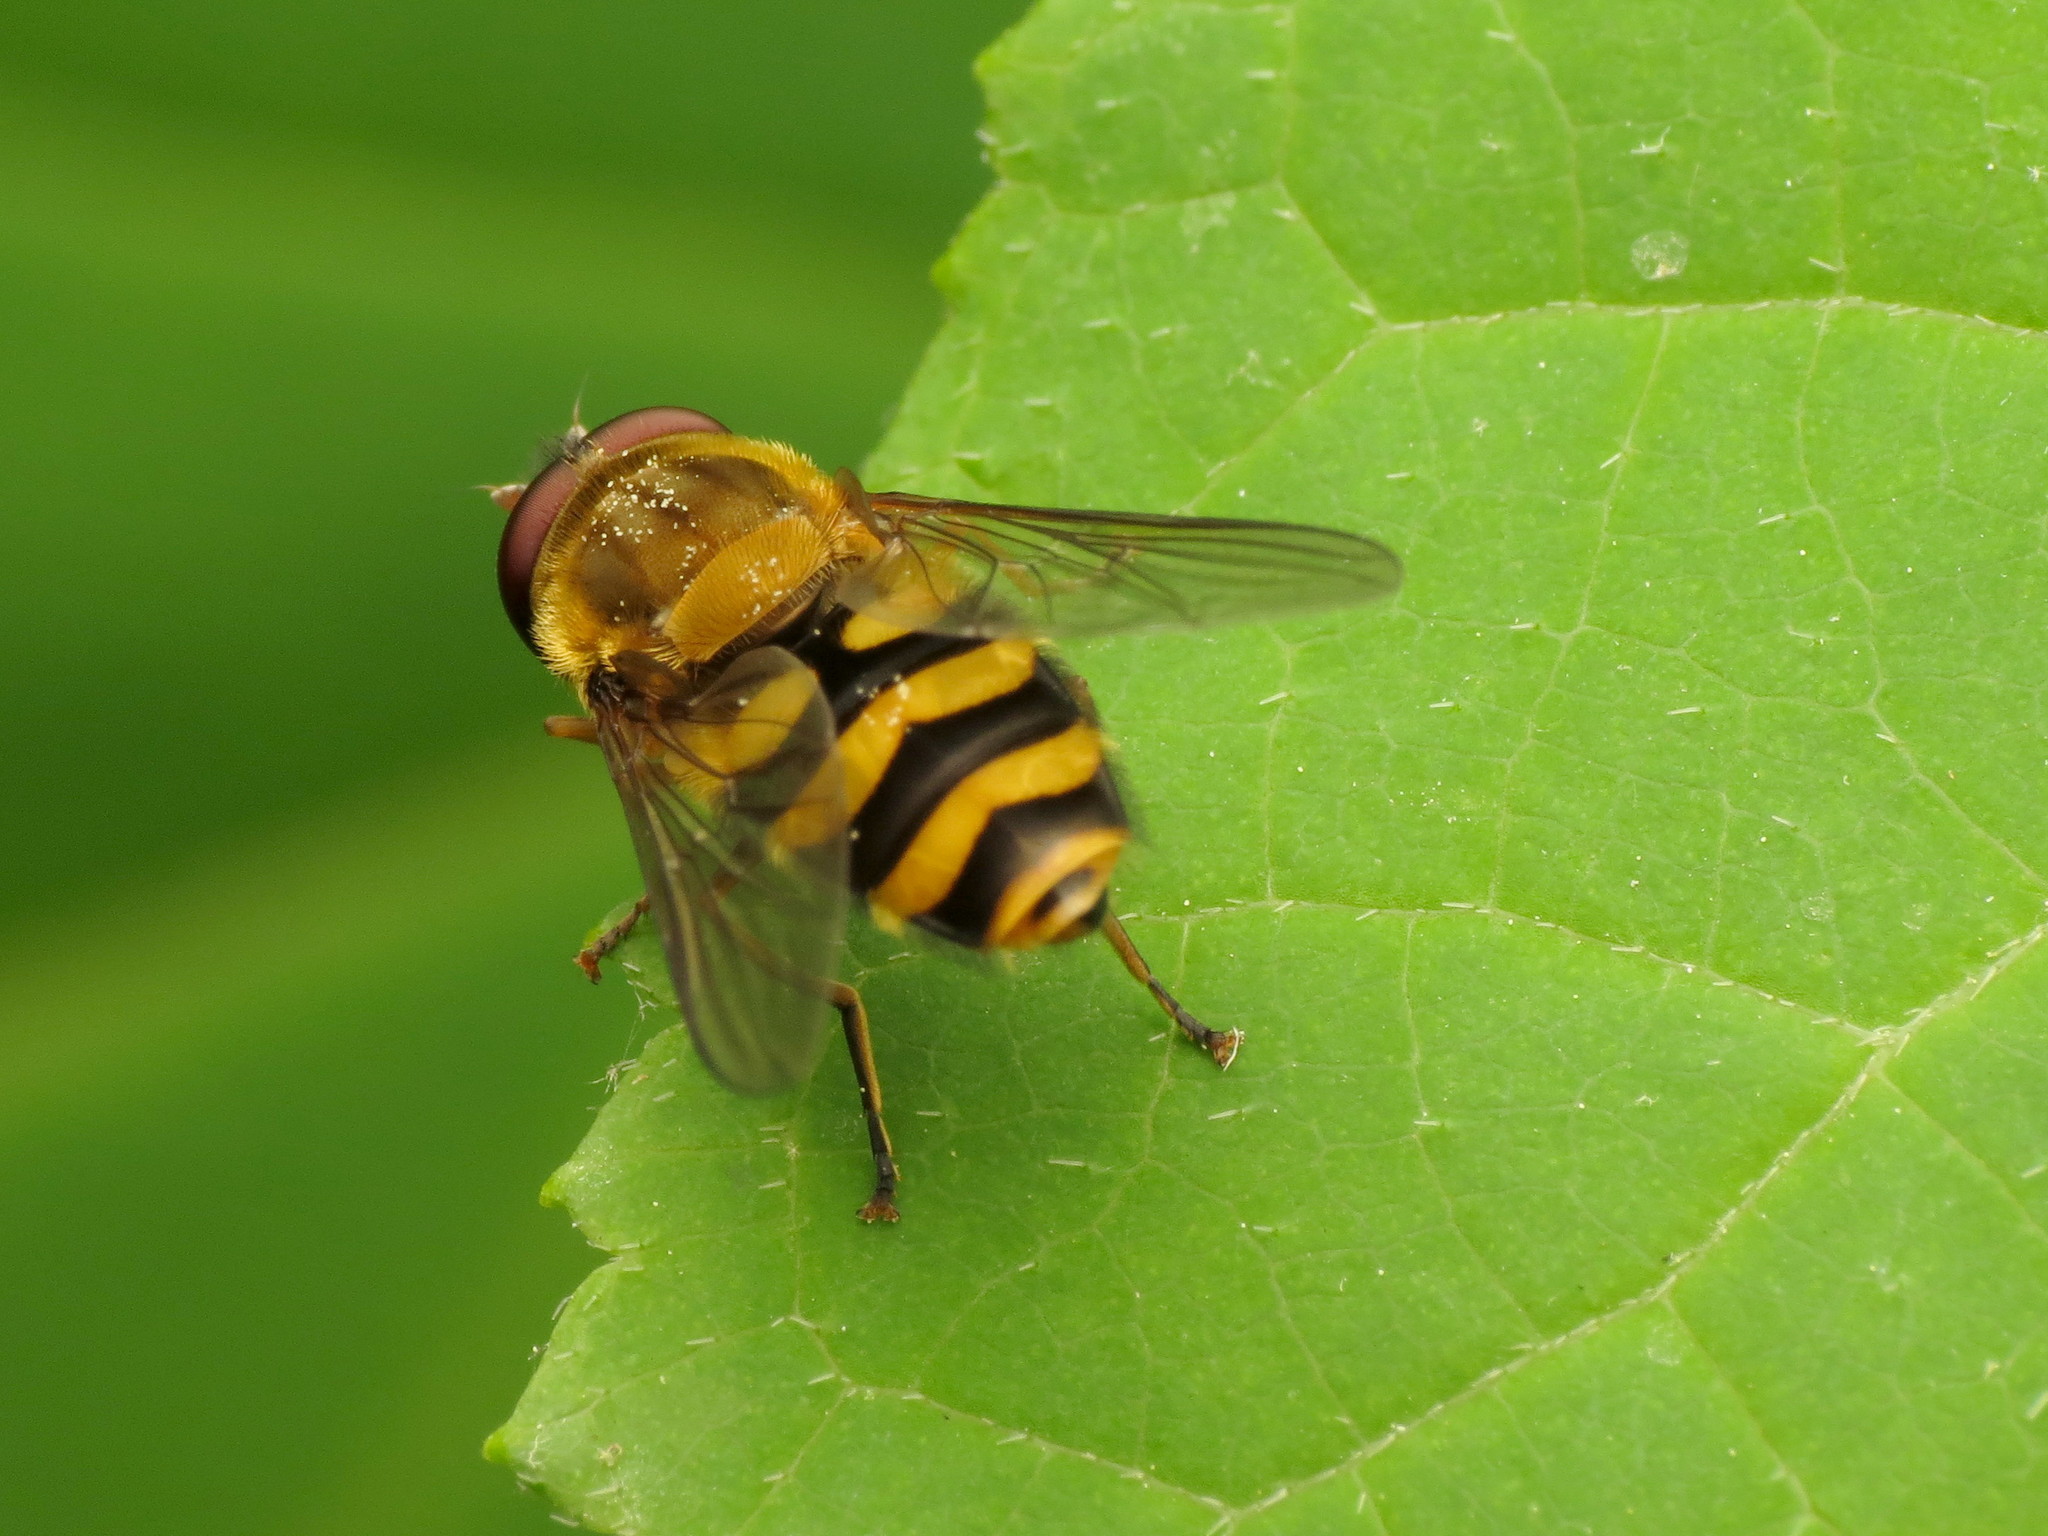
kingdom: Animalia
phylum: Arthropoda
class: Insecta
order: Diptera
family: Syrphidae
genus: Syrphus
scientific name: Syrphus
